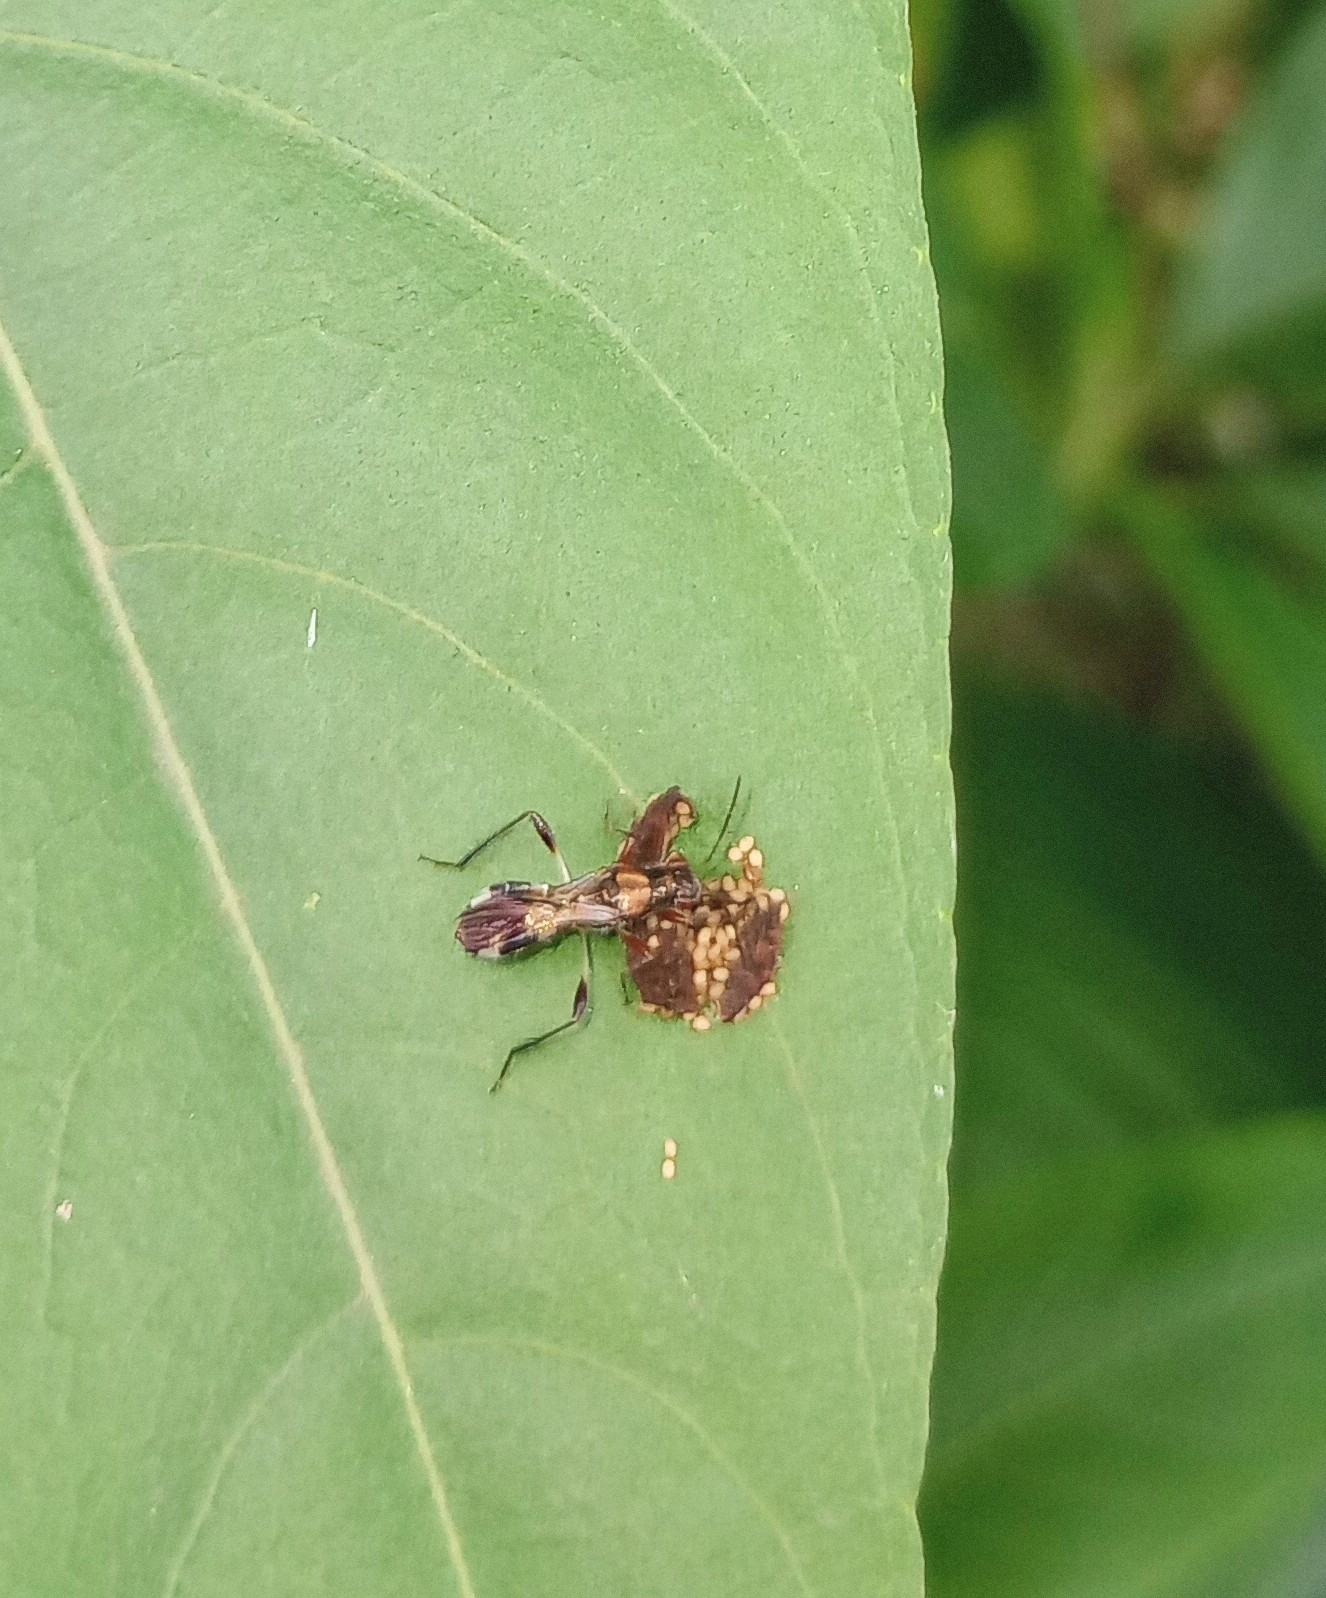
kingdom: Animalia
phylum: Arthropoda
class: Insecta
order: Hemiptera
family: Heterogastridae
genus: Artemidorus
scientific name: Artemidorus pressus
